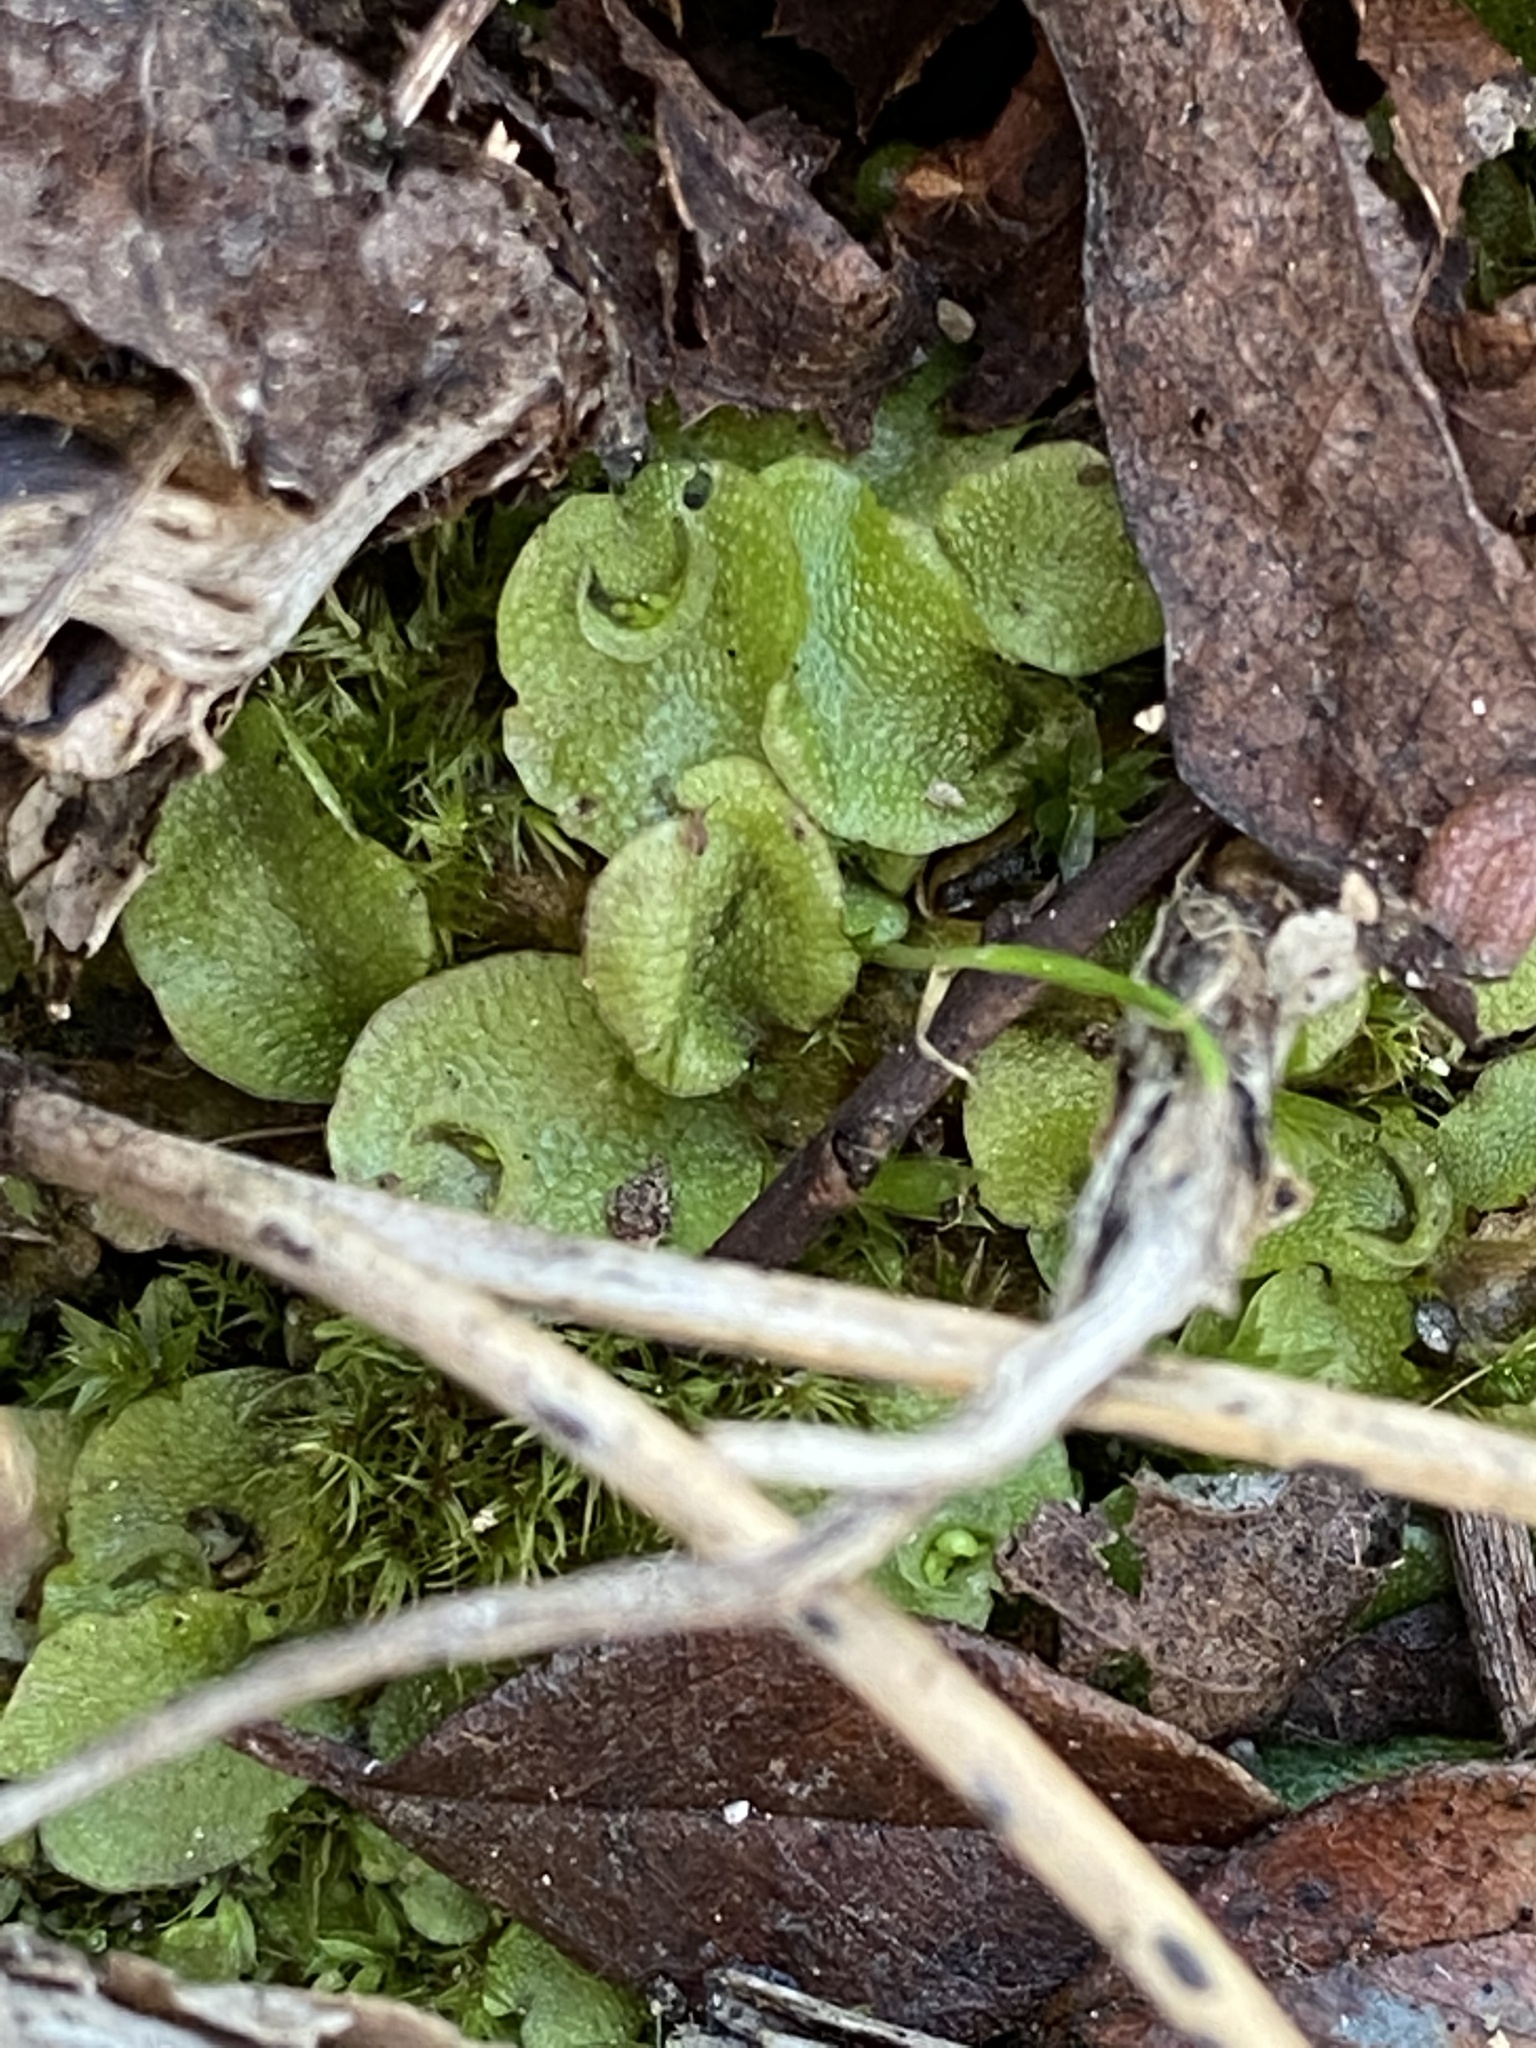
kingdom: Plantae
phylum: Marchantiophyta
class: Marchantiopsida
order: Lunulariales
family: Lunulariaceae
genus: Lunularia
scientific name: Lunularia cruciata
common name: Crescent-cup liverwort
